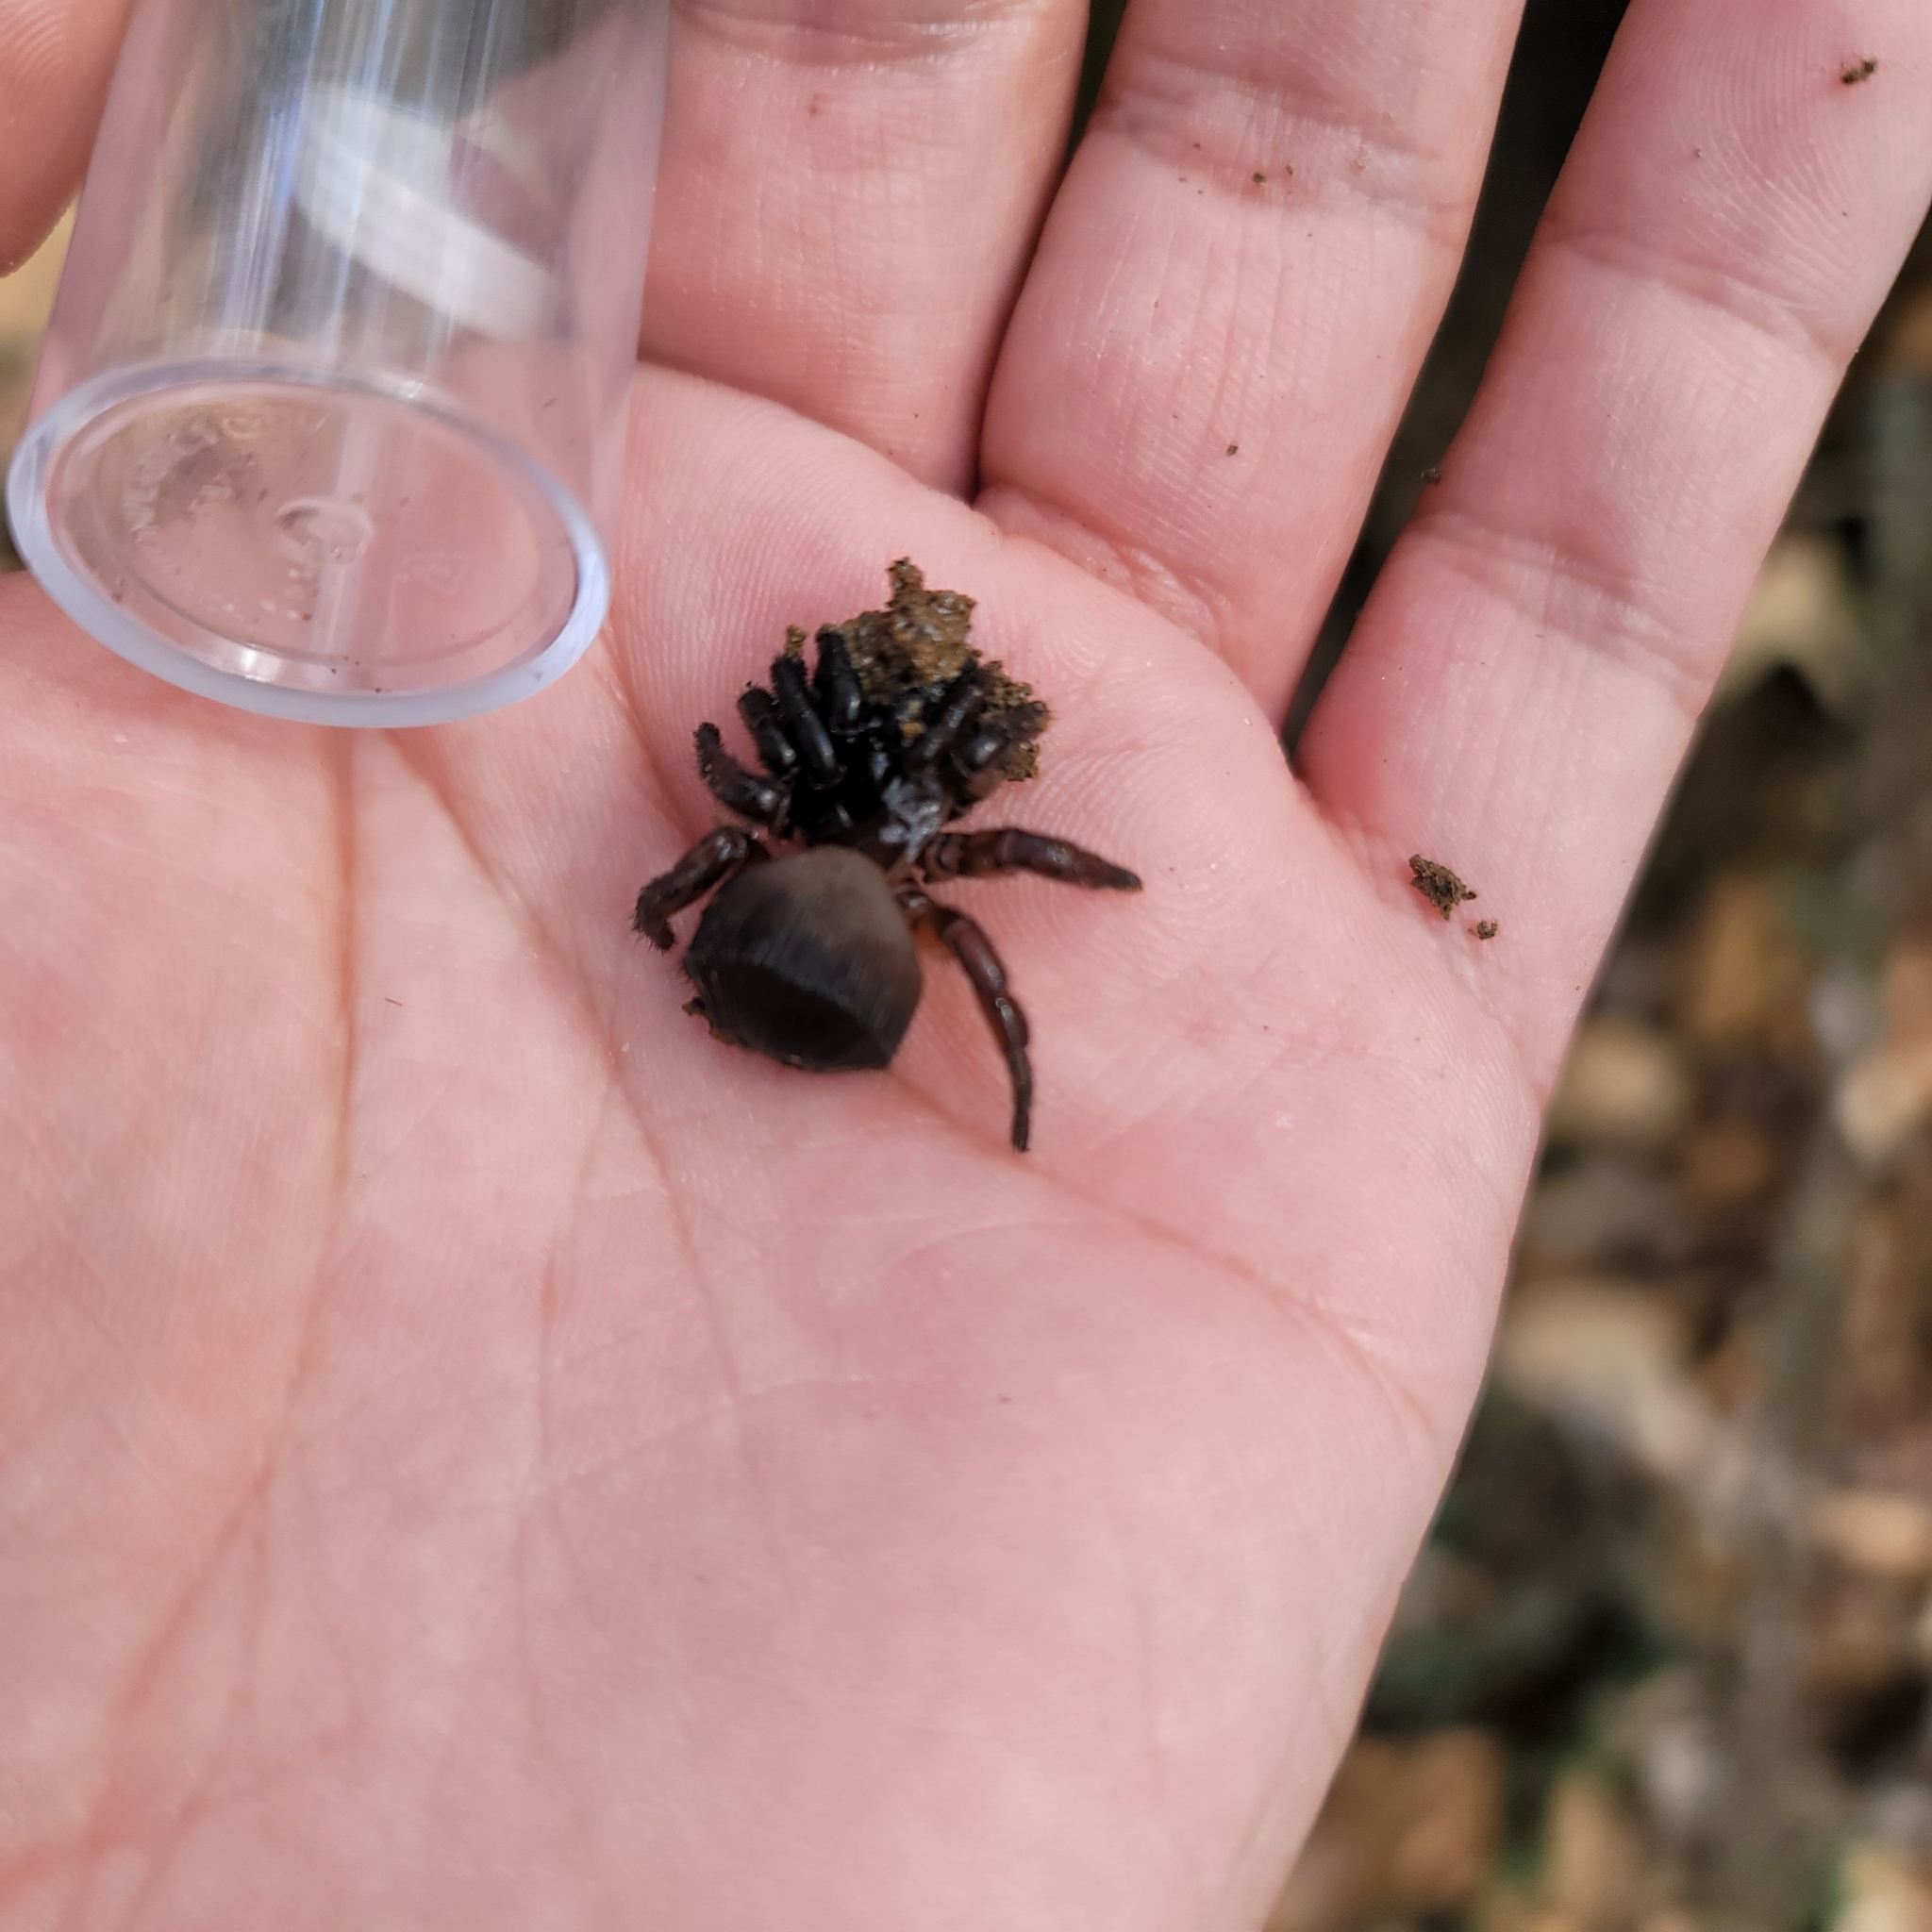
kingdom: Animalia
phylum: Arthropoda
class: Arachnida
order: Araneae
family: Halonoproctidae
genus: Cyclocosmia
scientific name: Cyclocosmia truncata
